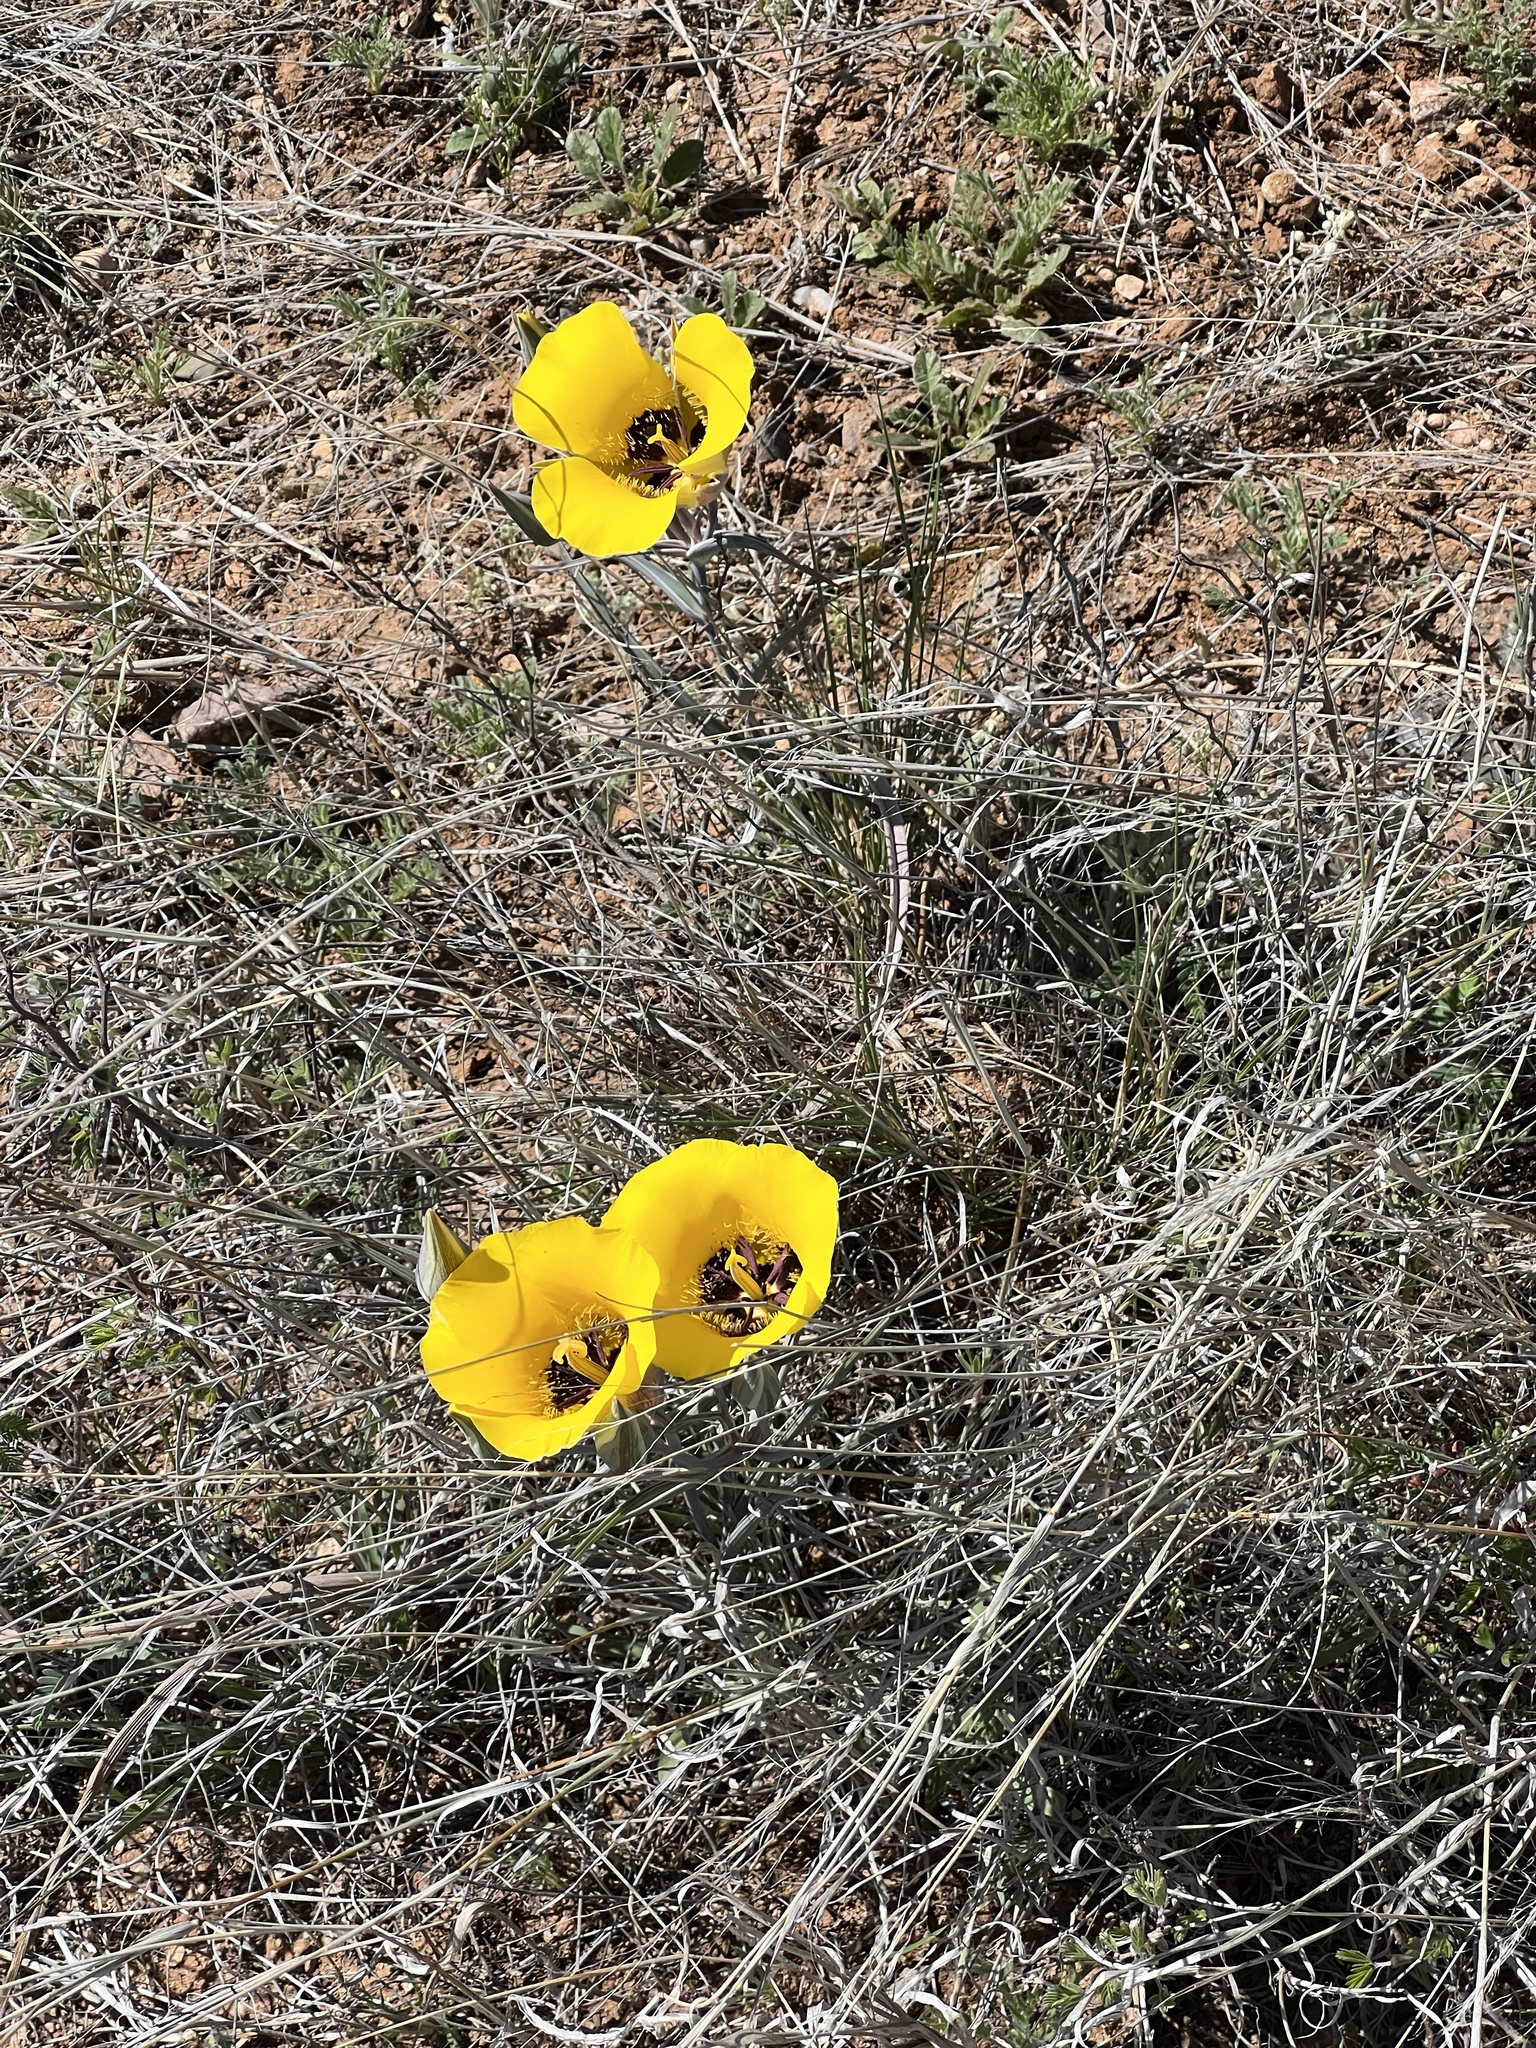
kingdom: Plantae
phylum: Tracheophyta
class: Liliopsida
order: Liliales
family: Liliaceae
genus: Calochortus
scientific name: Calochortus kennedyi
